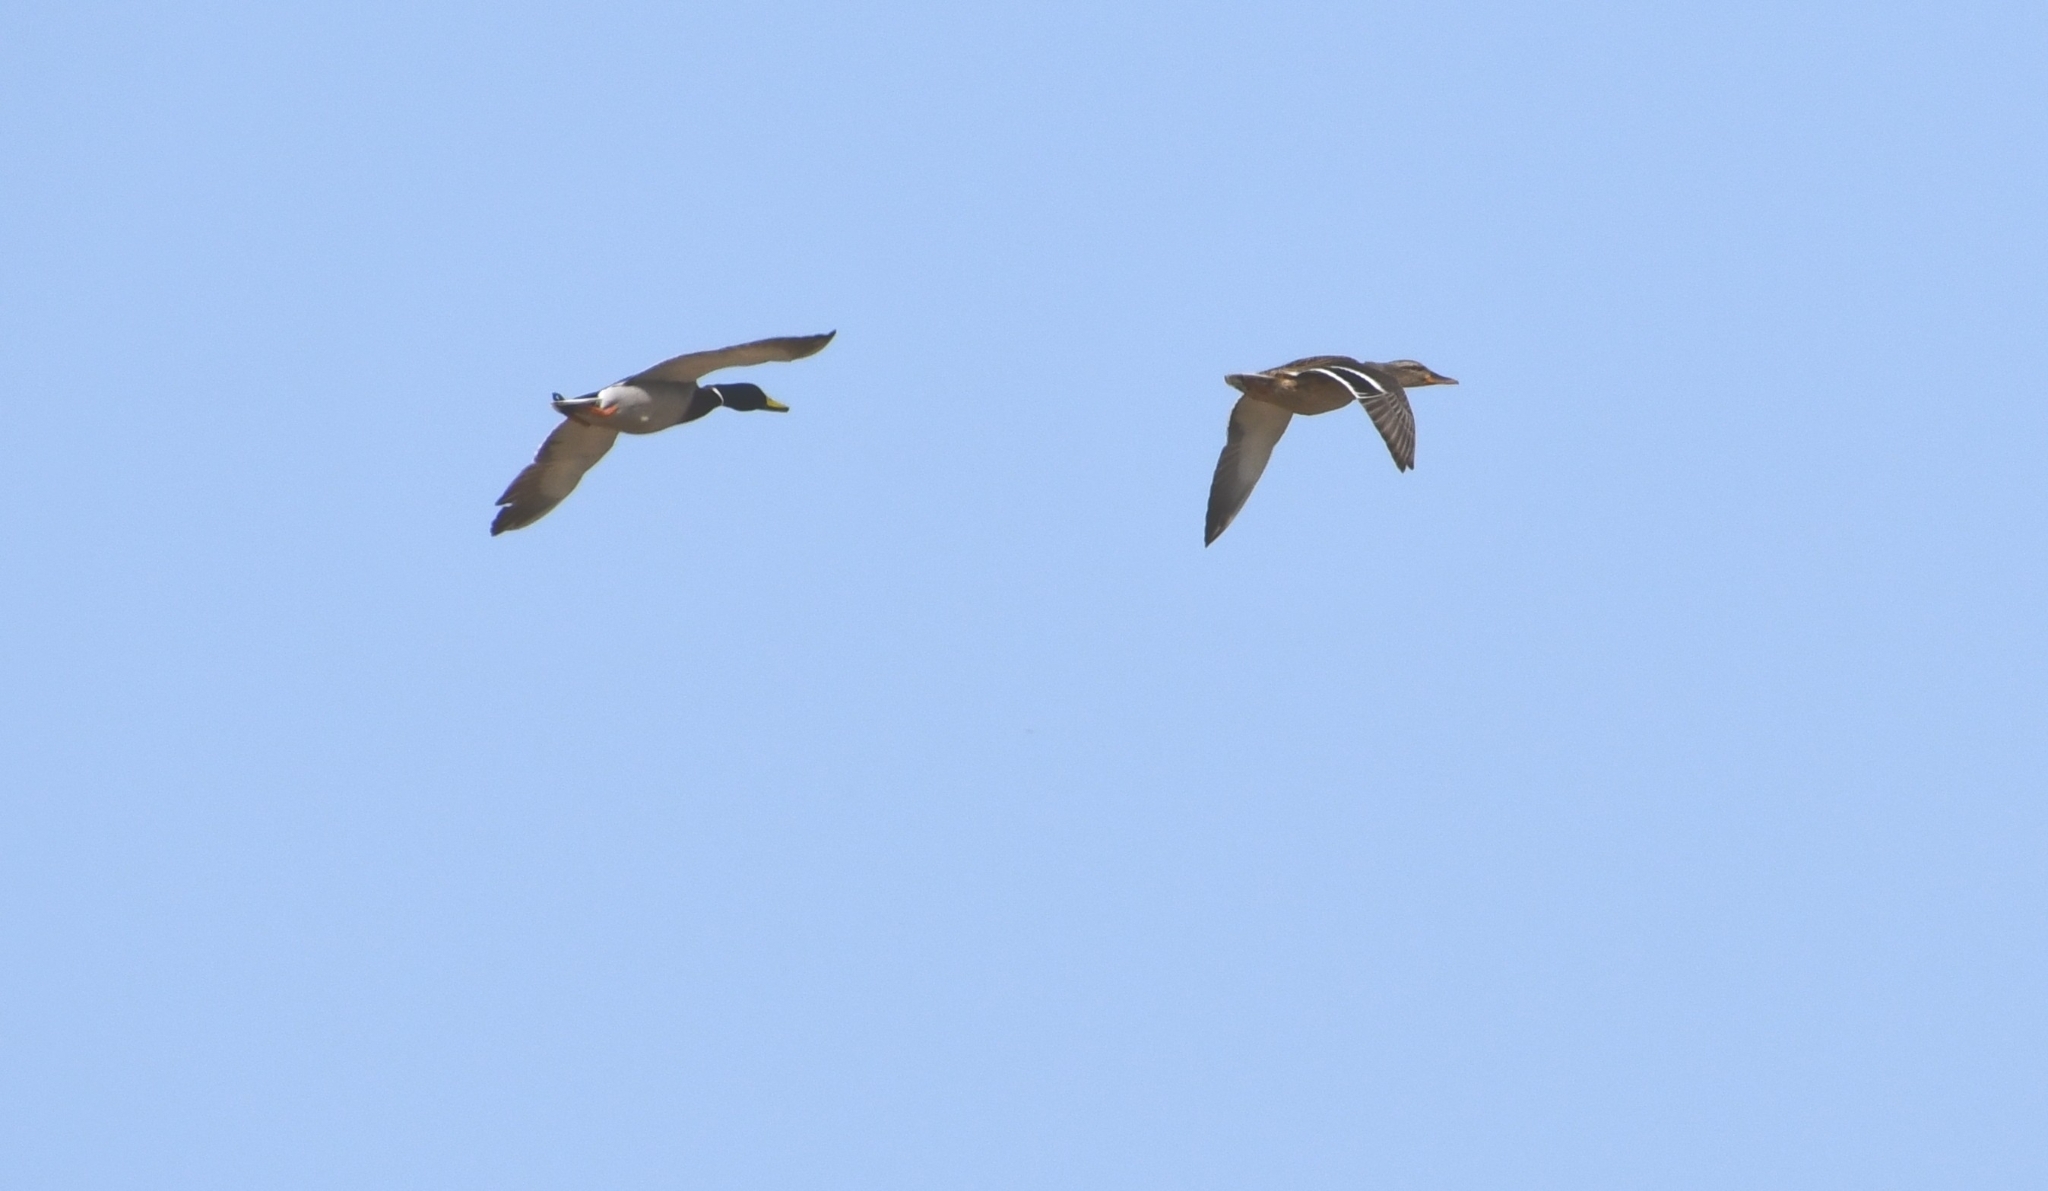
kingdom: Animalia
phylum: Chordata
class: Aves
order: Anseriformes
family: Anatidae
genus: Anas
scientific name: Anas platyrhynchos
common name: Mallard
